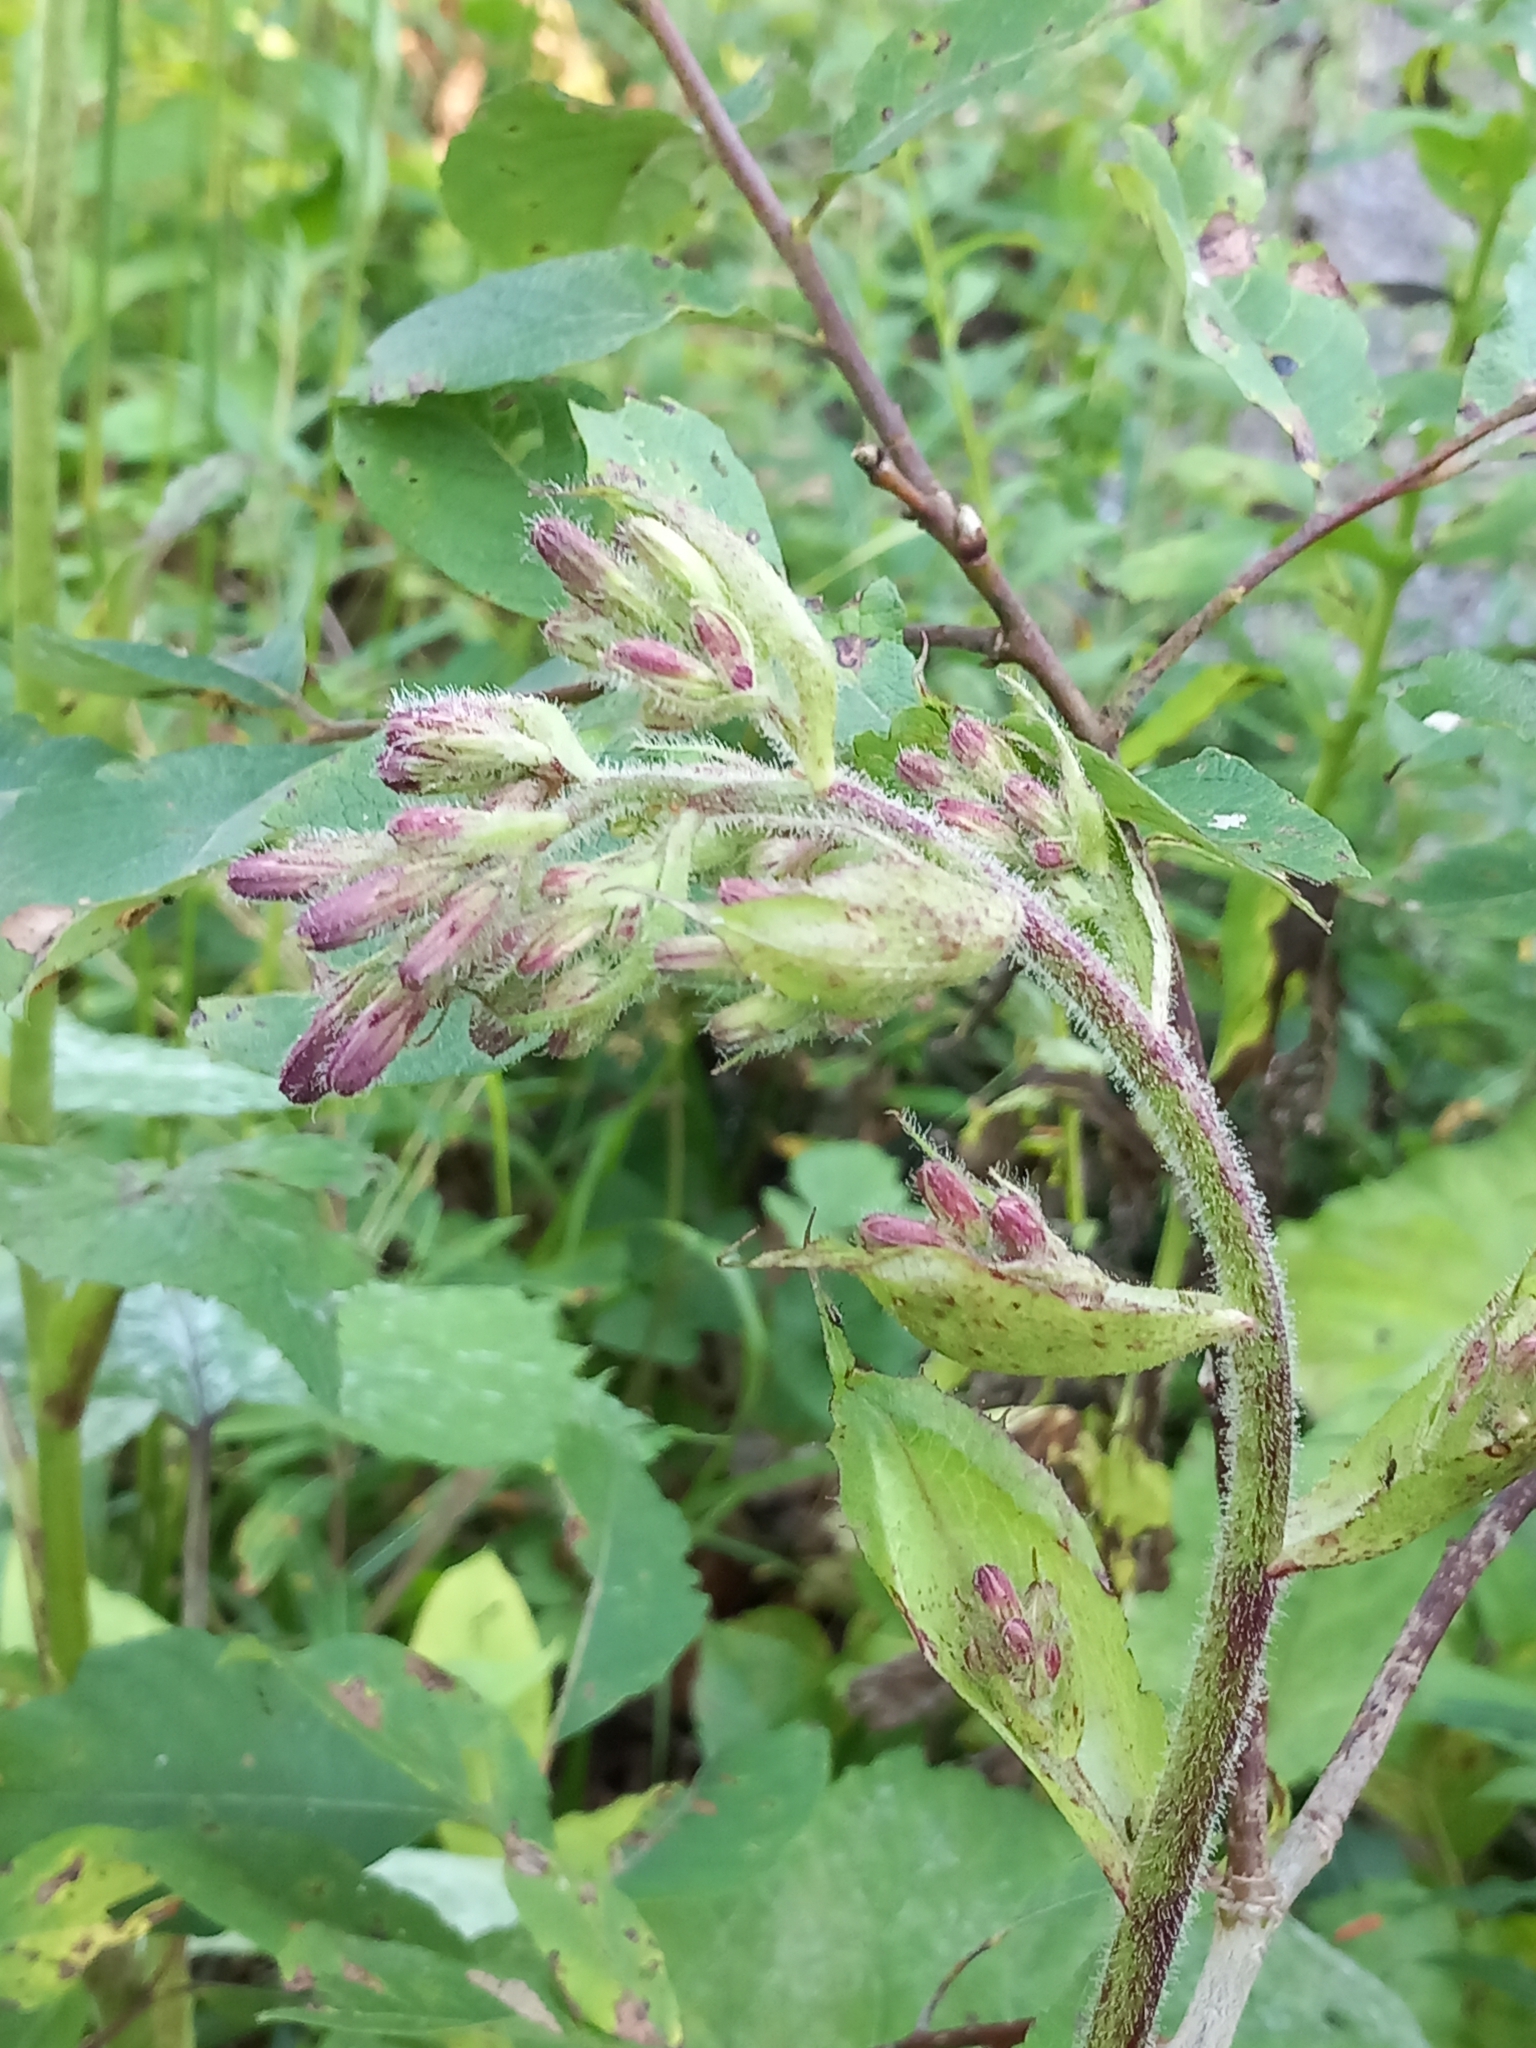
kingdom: Plantae
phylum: Tracheophyta
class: Magnoliopsida
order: Asterales
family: Asteraceae
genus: Cicerbita
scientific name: Cicerbita petiolata
